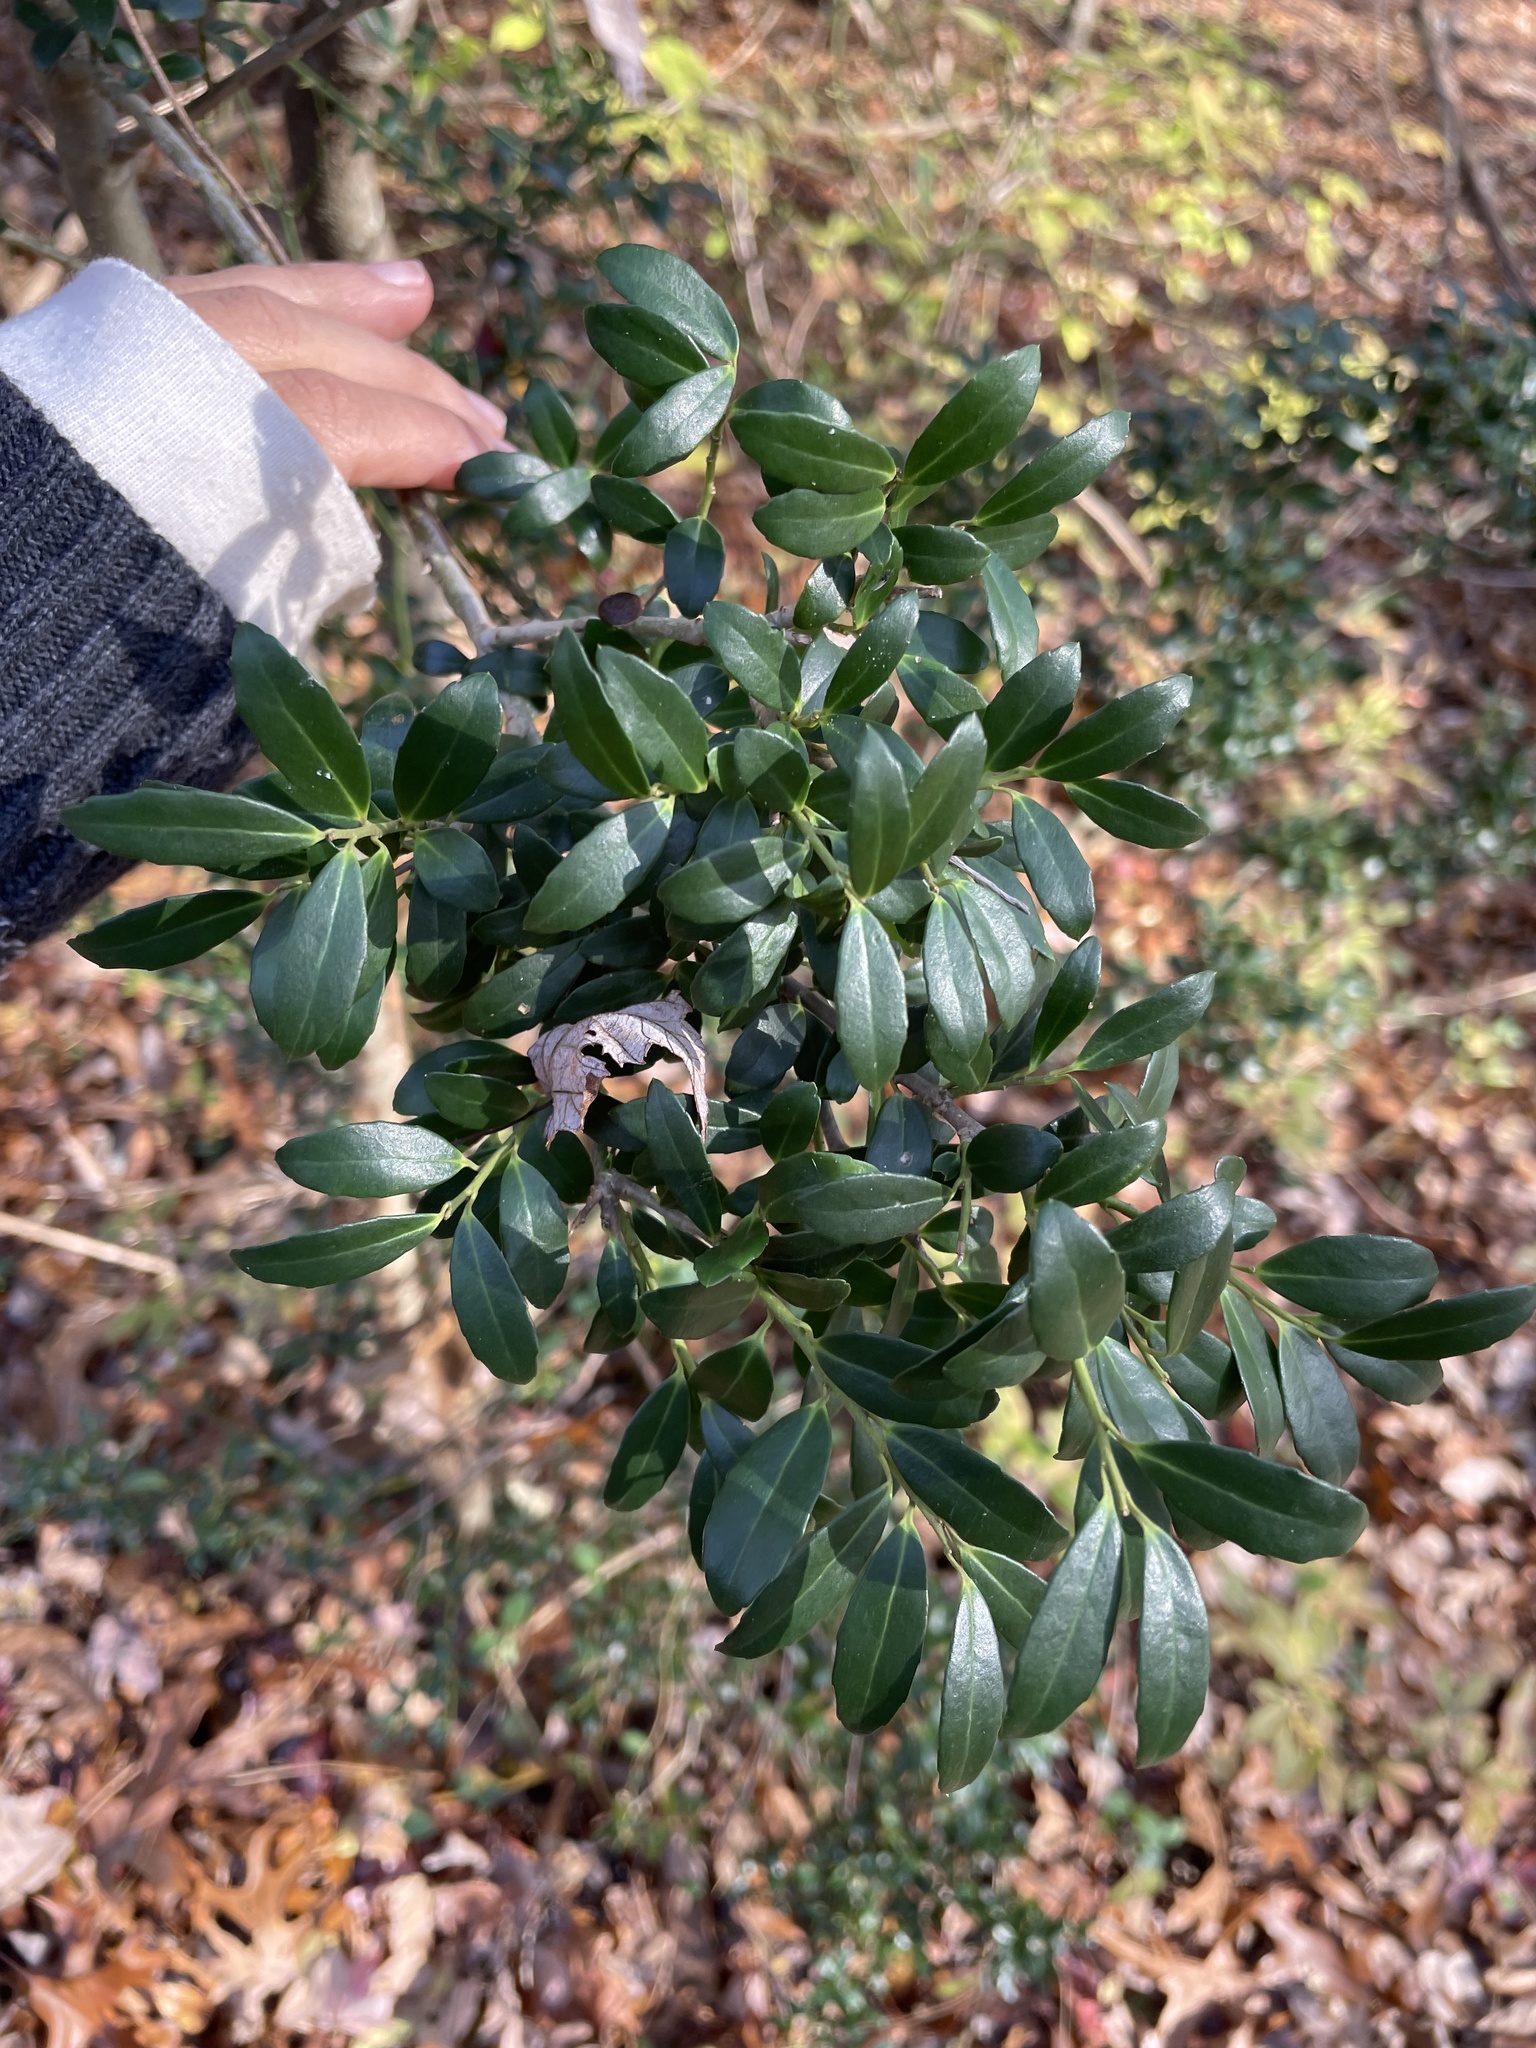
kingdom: Plantae
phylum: Tracheophyta
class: Magnoliopsida
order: Aquifoliales
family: Aquifoliaceae
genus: Ilex
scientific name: Ilex crenata
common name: Japanese holly
